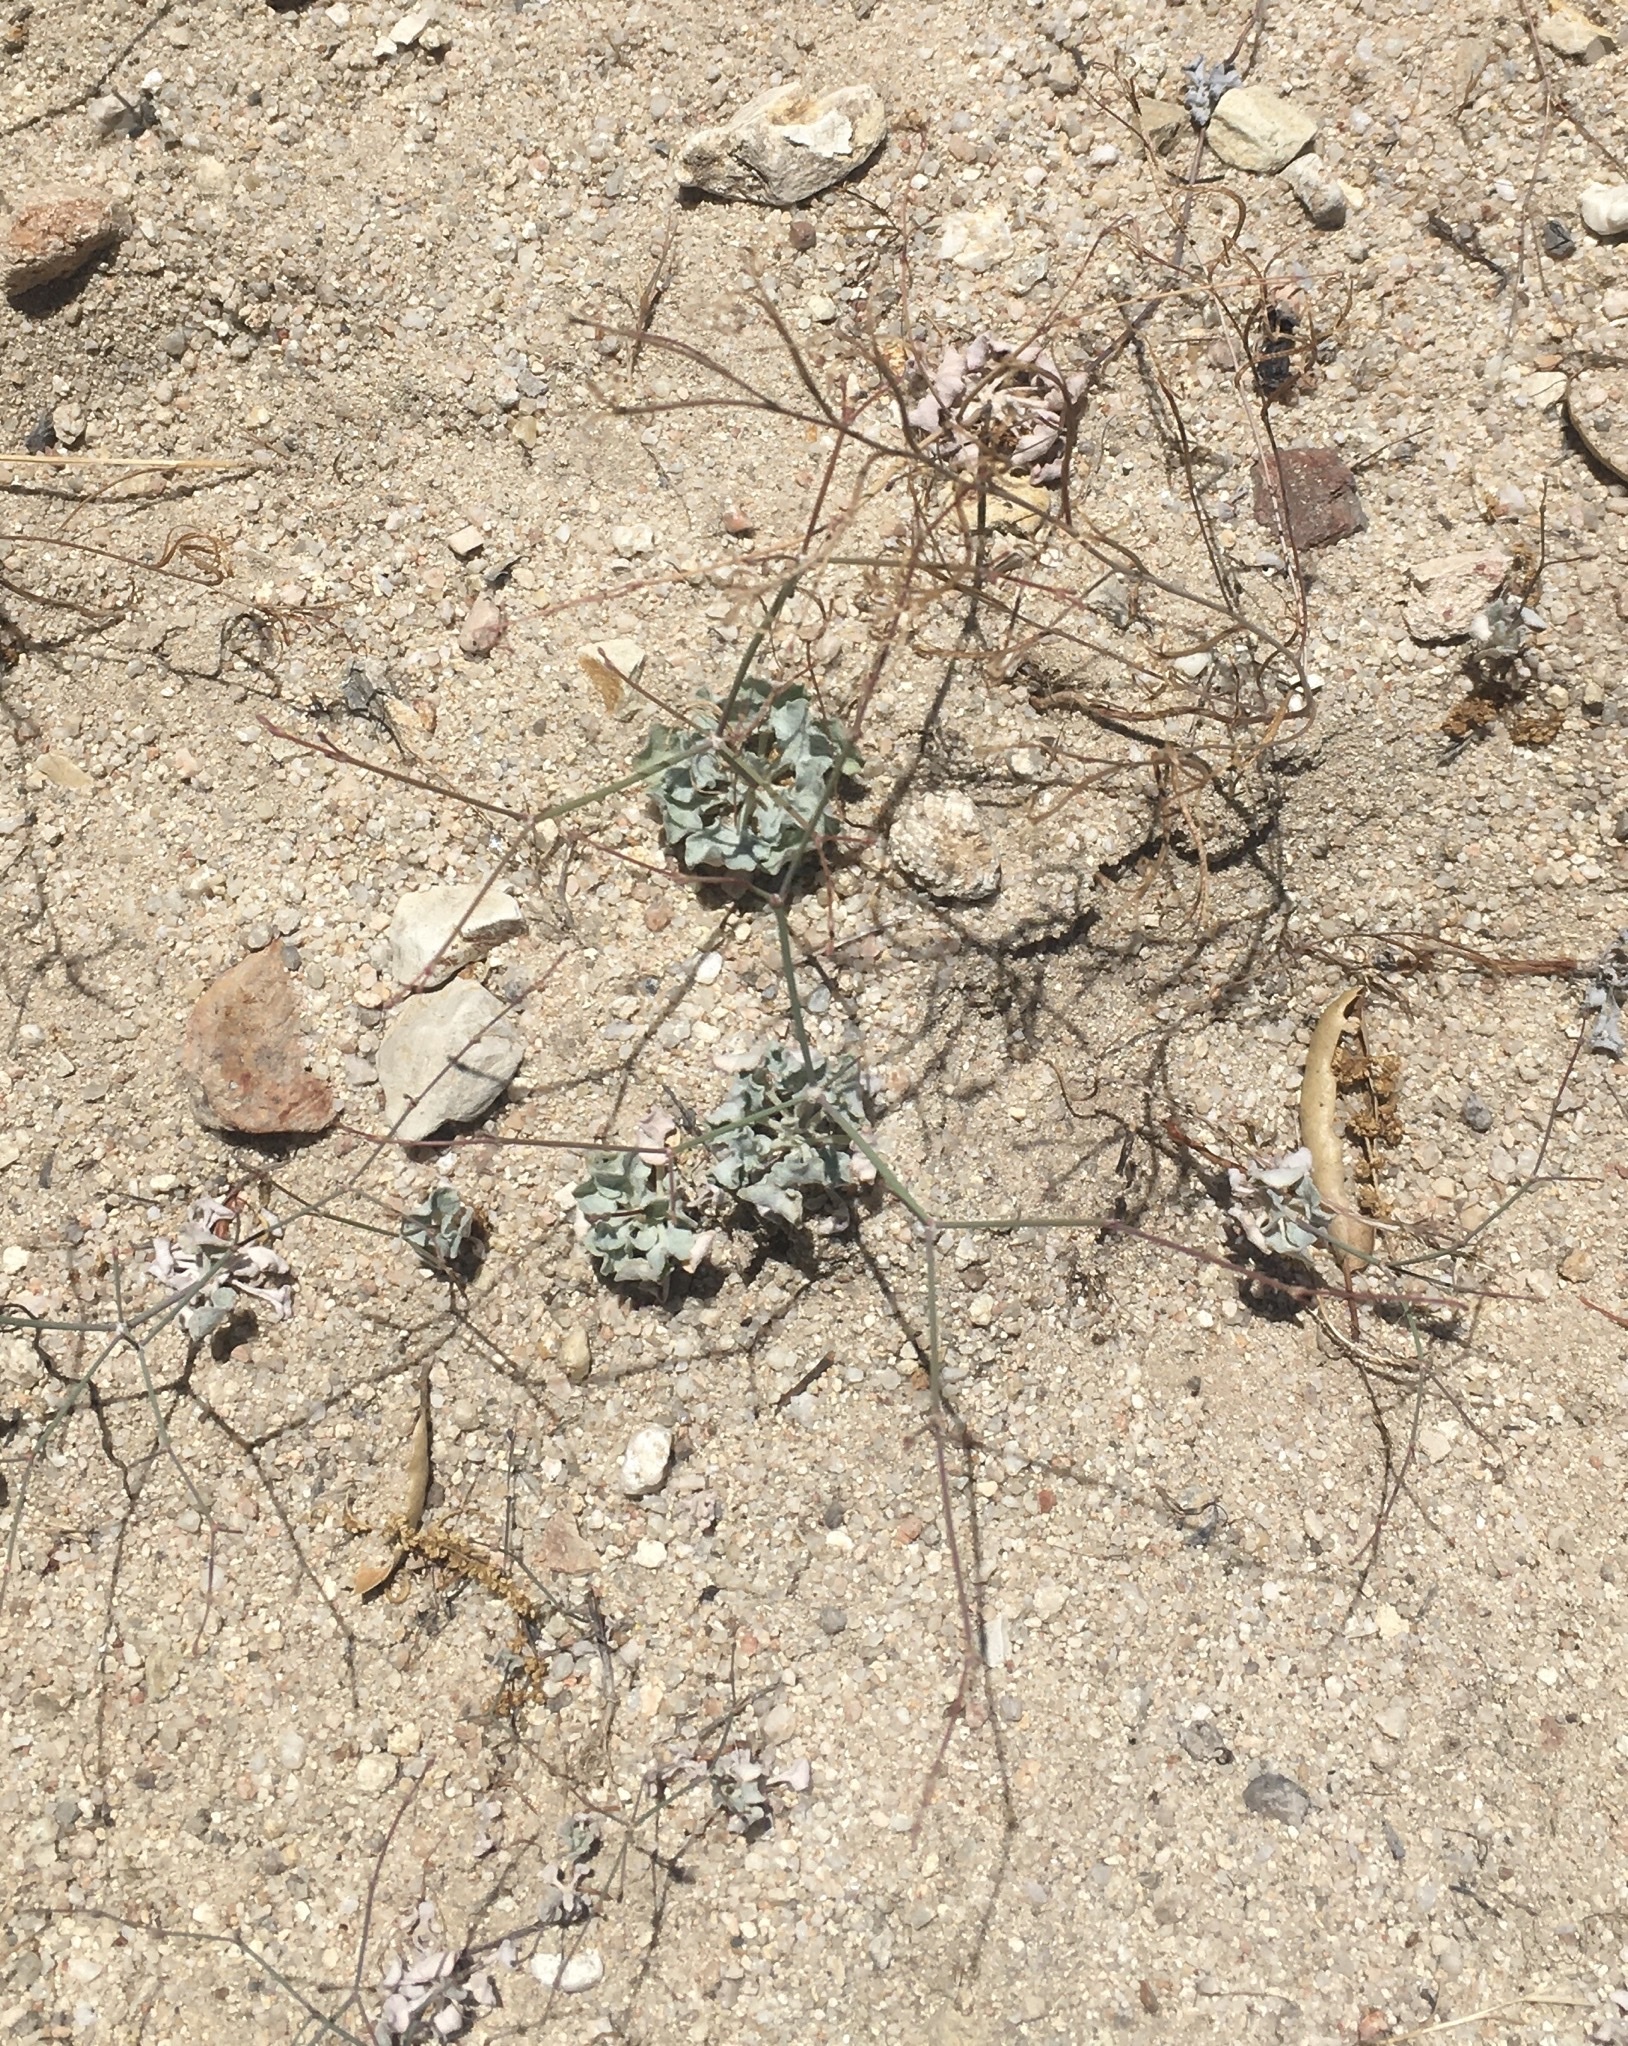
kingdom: Plantae
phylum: Tracheophyta
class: Magnoliopsida
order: Caryophyllales
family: Polygonaceae
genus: Eriogonum
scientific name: Eriogonum elegans
